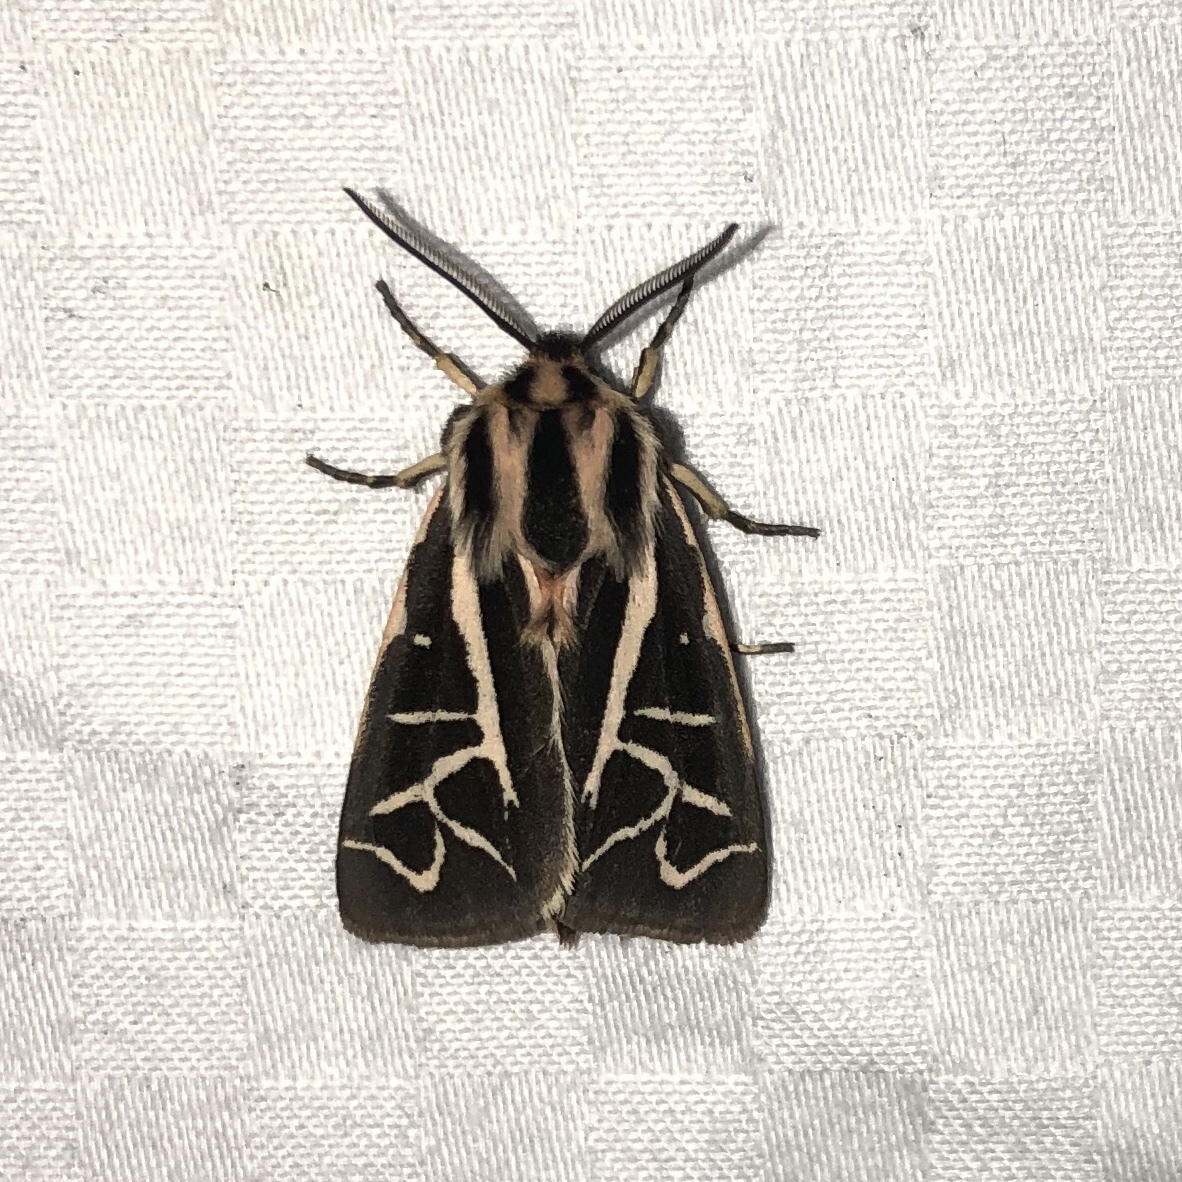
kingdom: Animalia
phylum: Arthropoda
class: Insecta
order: Lepidoptera
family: Erebidae
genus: Apantesis
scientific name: Apantesis
